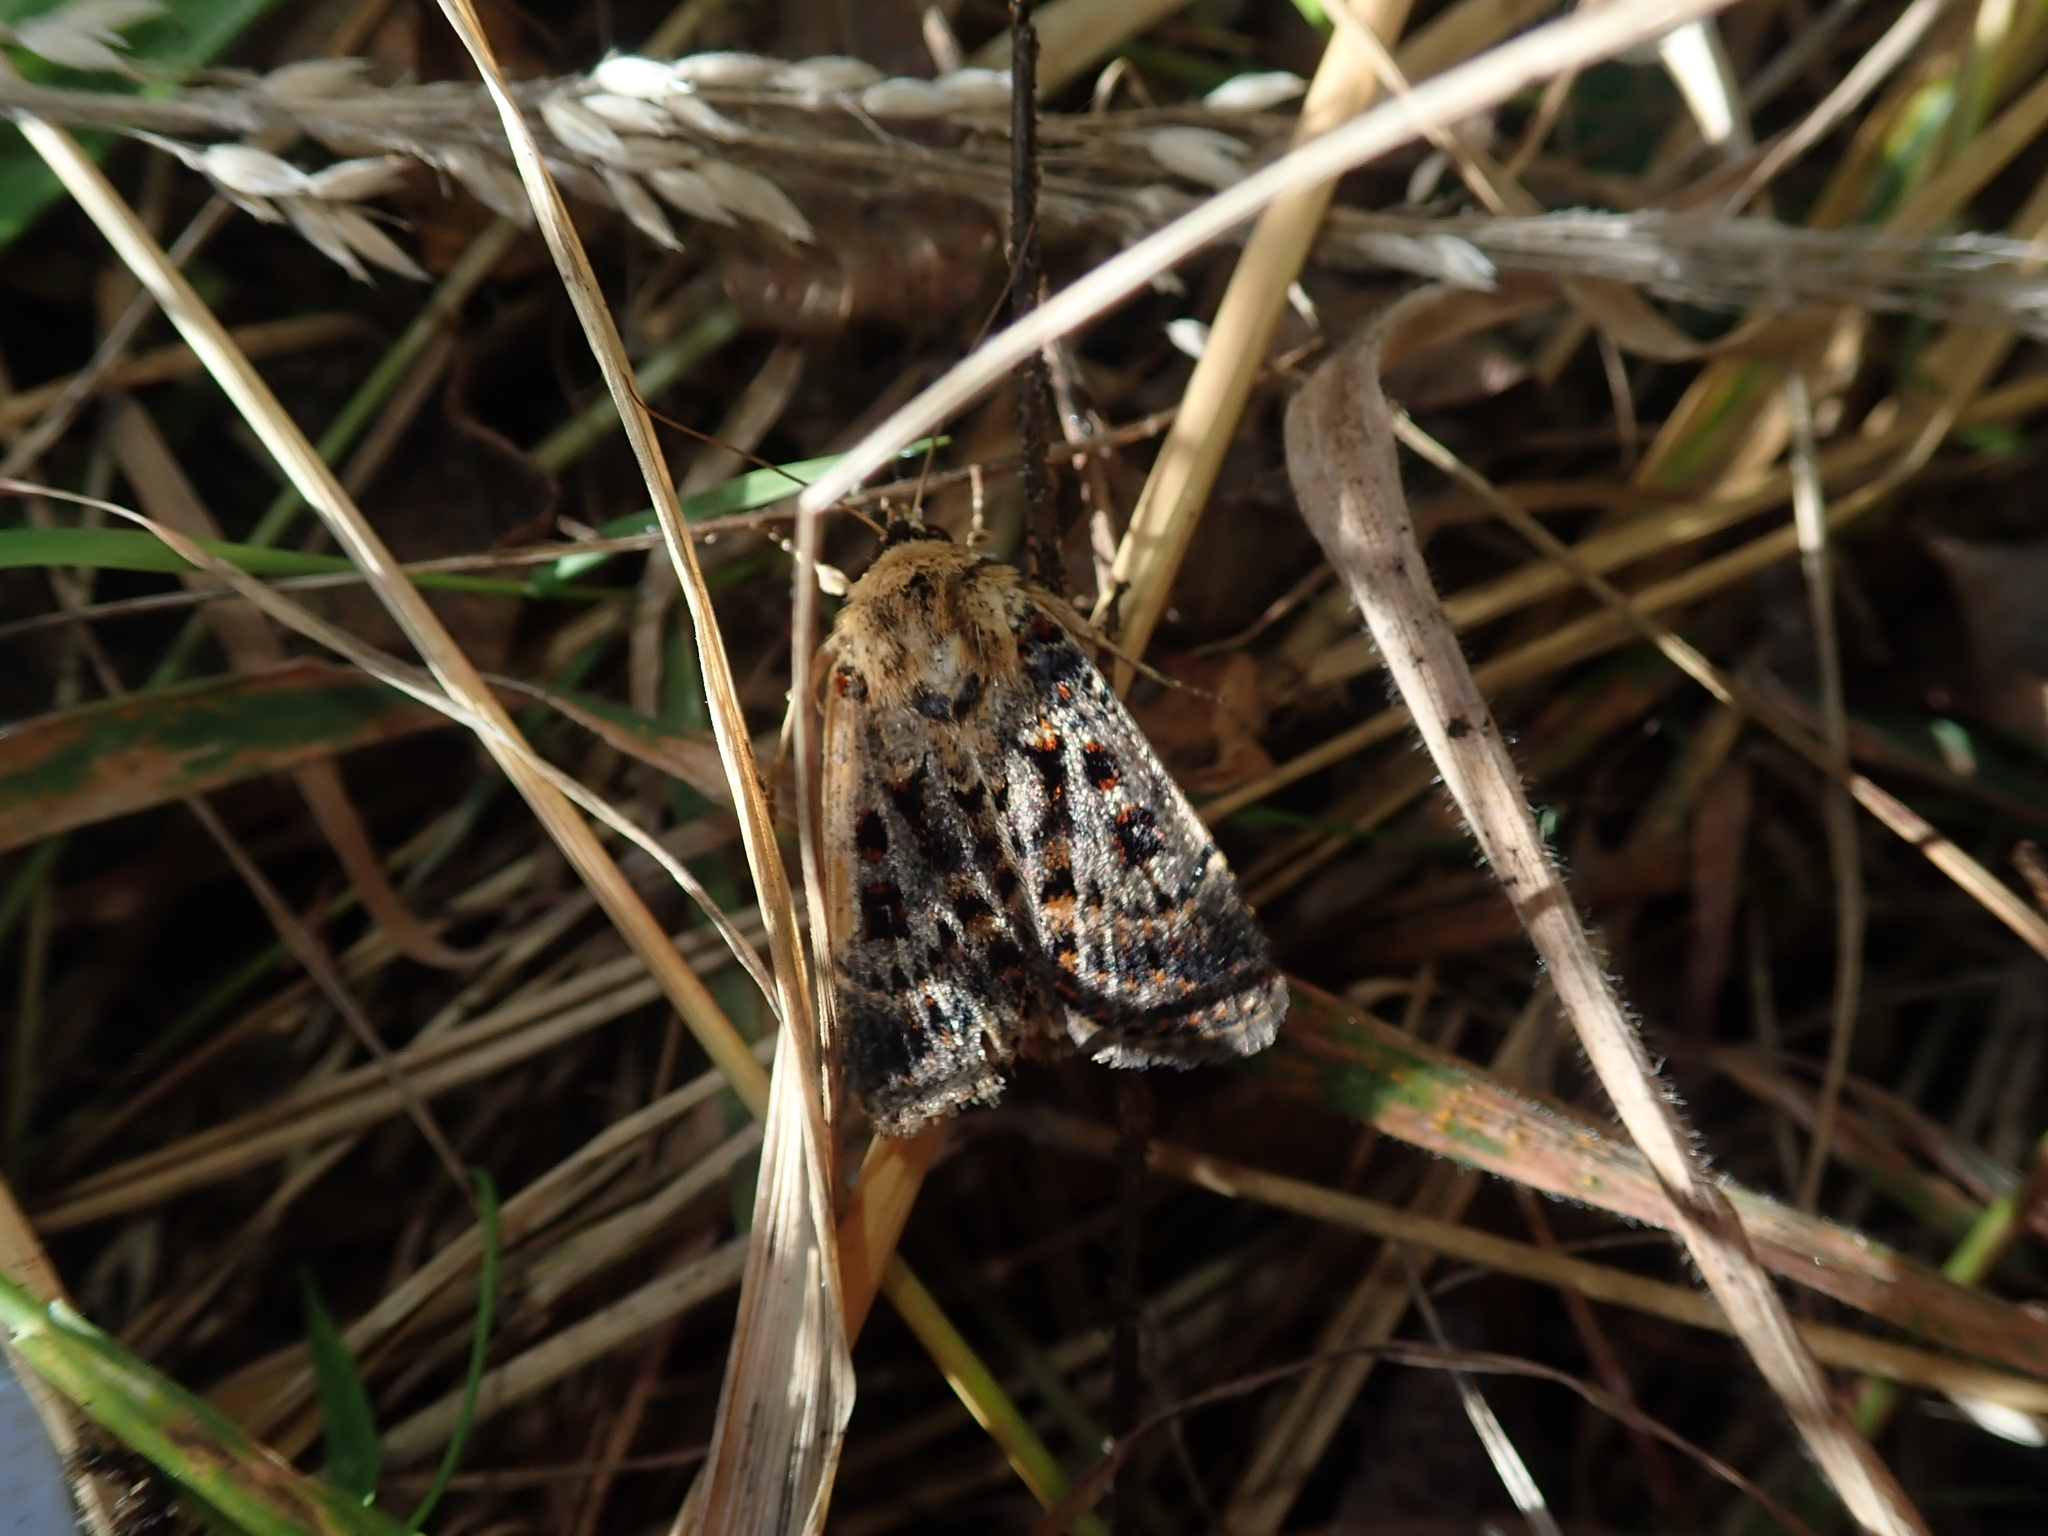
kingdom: Animalia
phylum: Arthropoda
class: Insecta
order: Lepidoptera
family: Noctuidae
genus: Proteuxoa
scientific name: Proteuxoa sanguinipuncta
